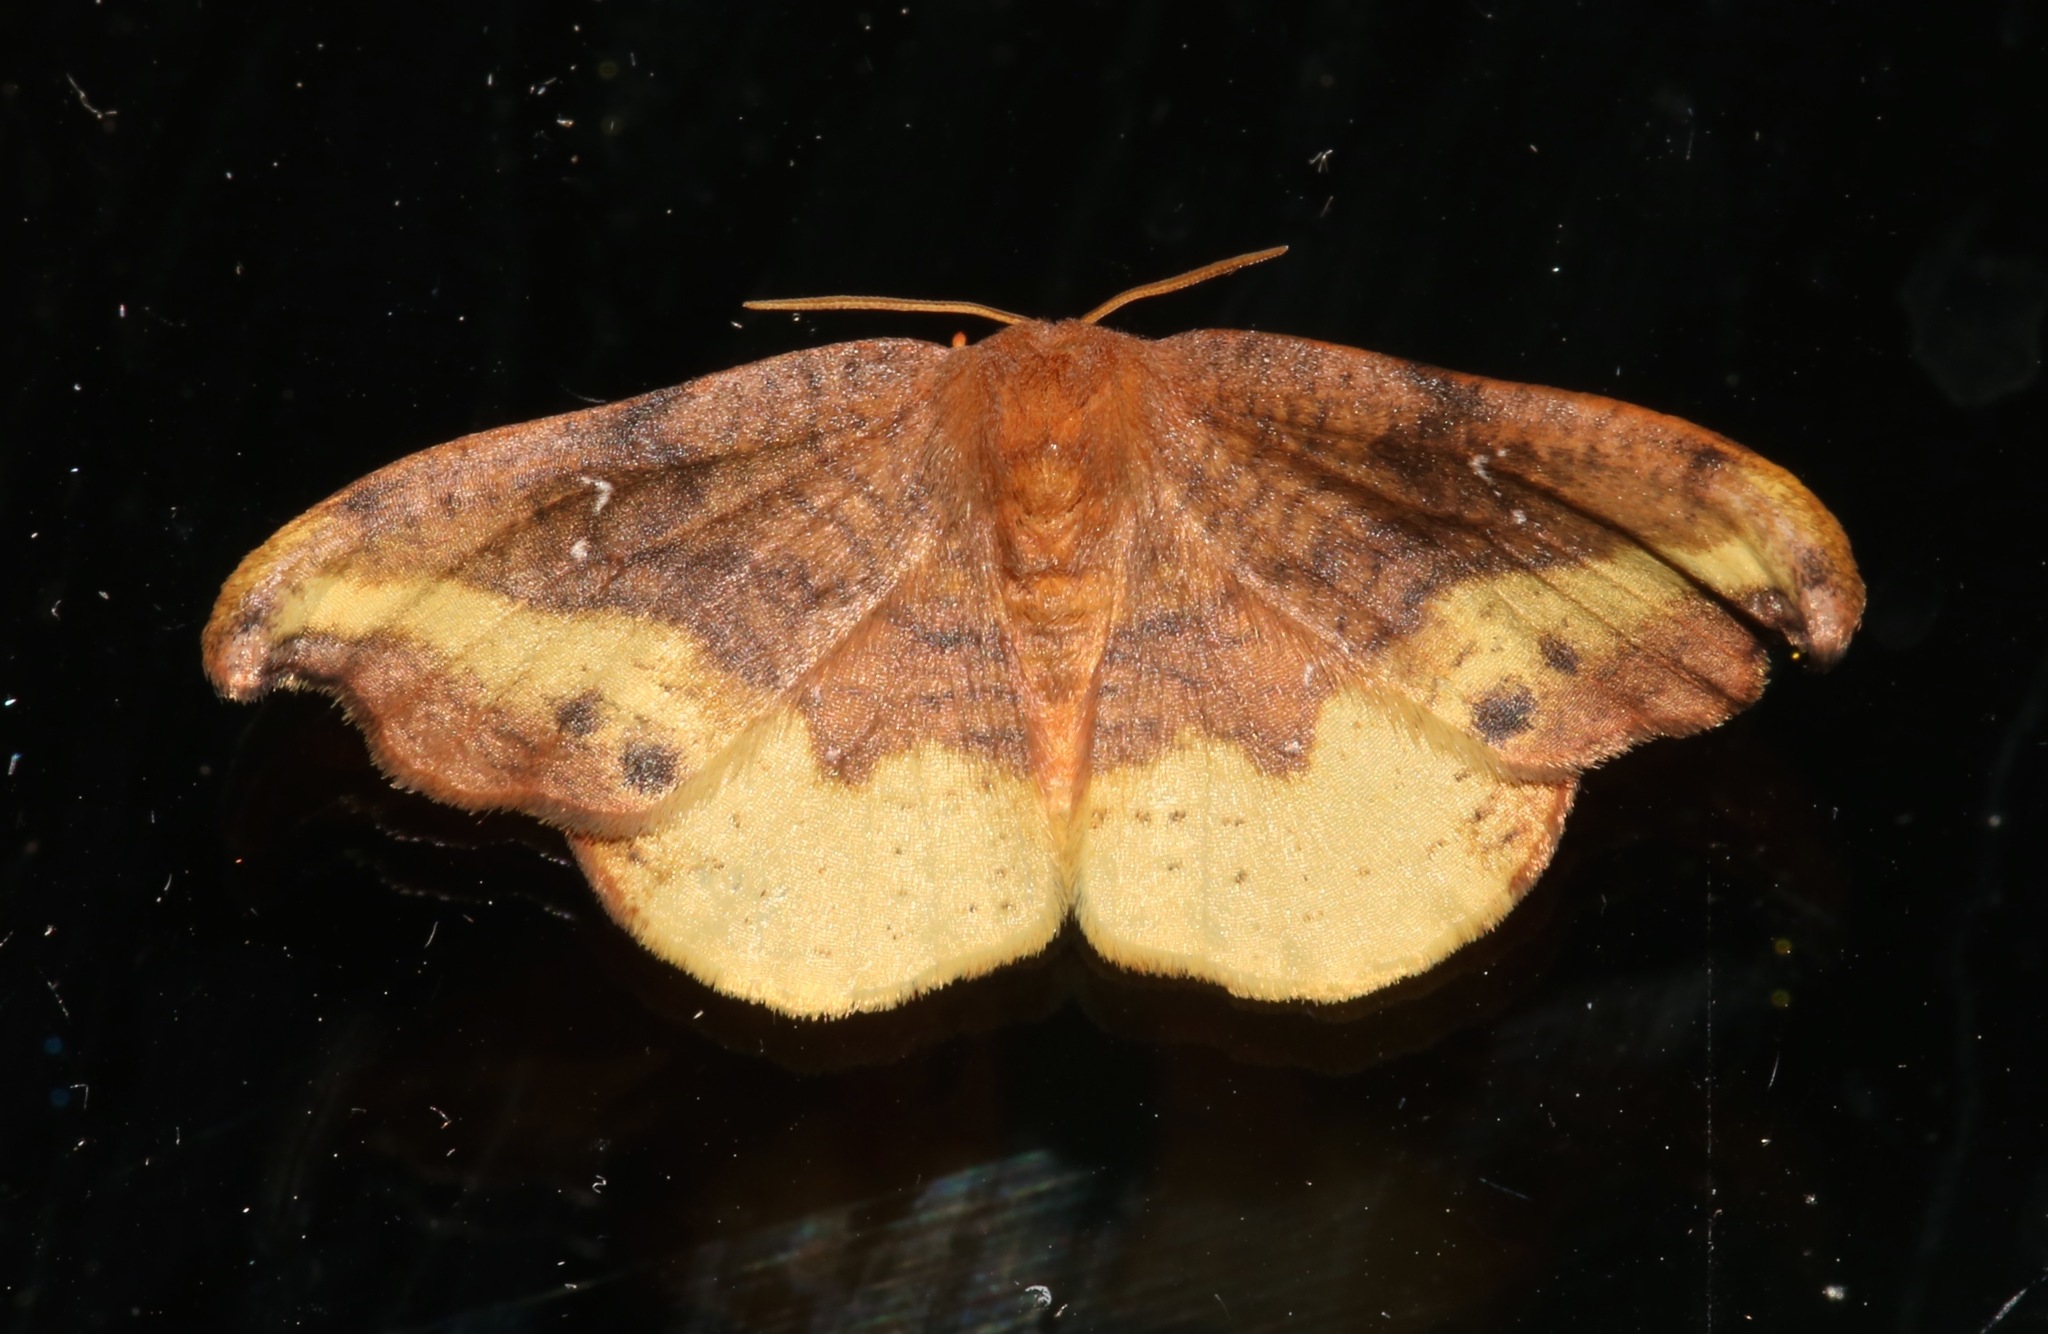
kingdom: Animalia
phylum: Arthropoda
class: Insecta
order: Lepidoptera
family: Drepanidae
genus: Oreta
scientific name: Oreta rosea
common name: Rose hooktip
